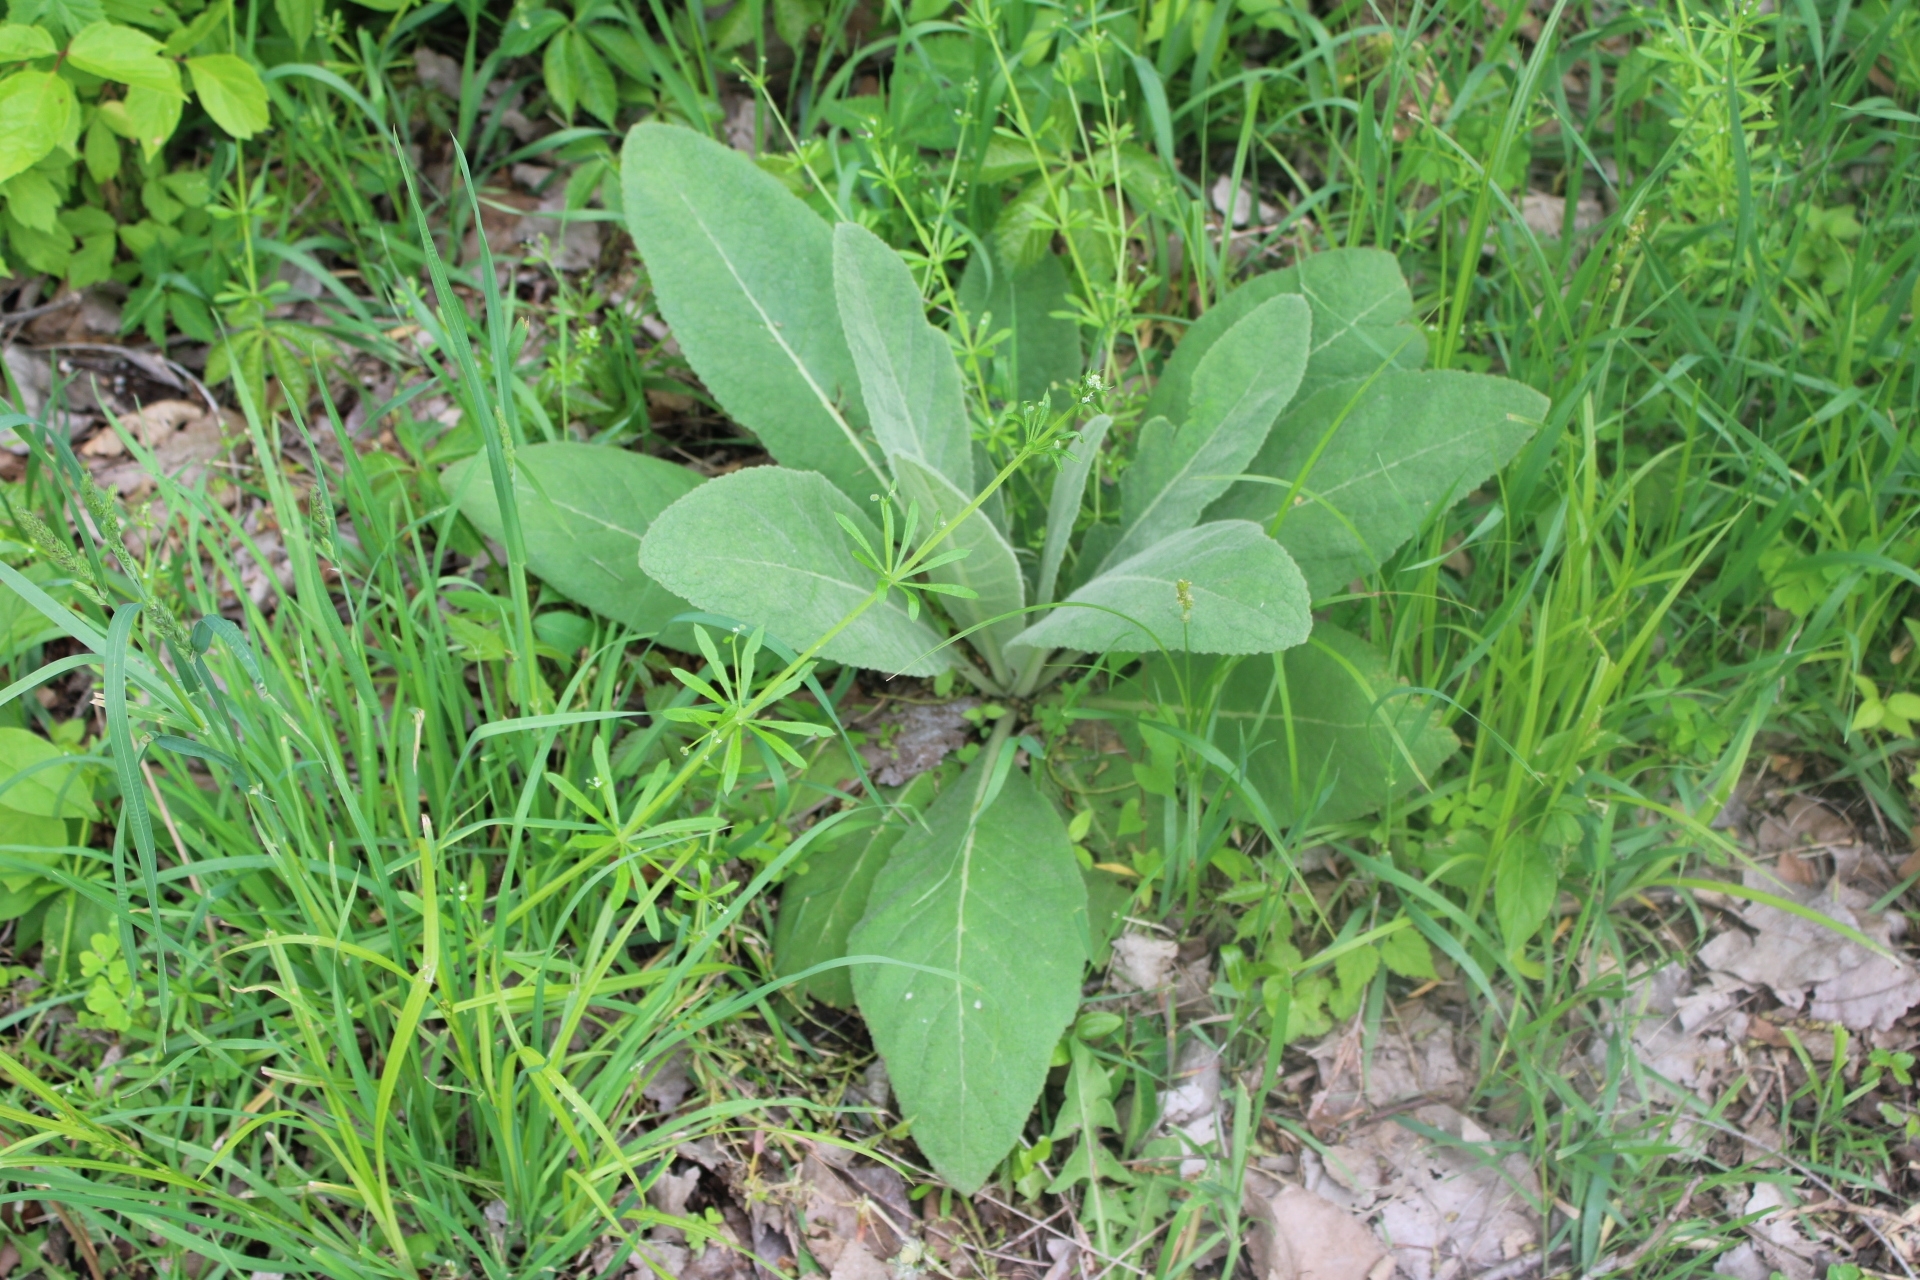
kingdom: Plantae
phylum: Tracheophyta
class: Magnoliopsida
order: Lamiales
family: Scrophulariaceae
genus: Verbascum
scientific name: Verbascum thapsus
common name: Common mullein
